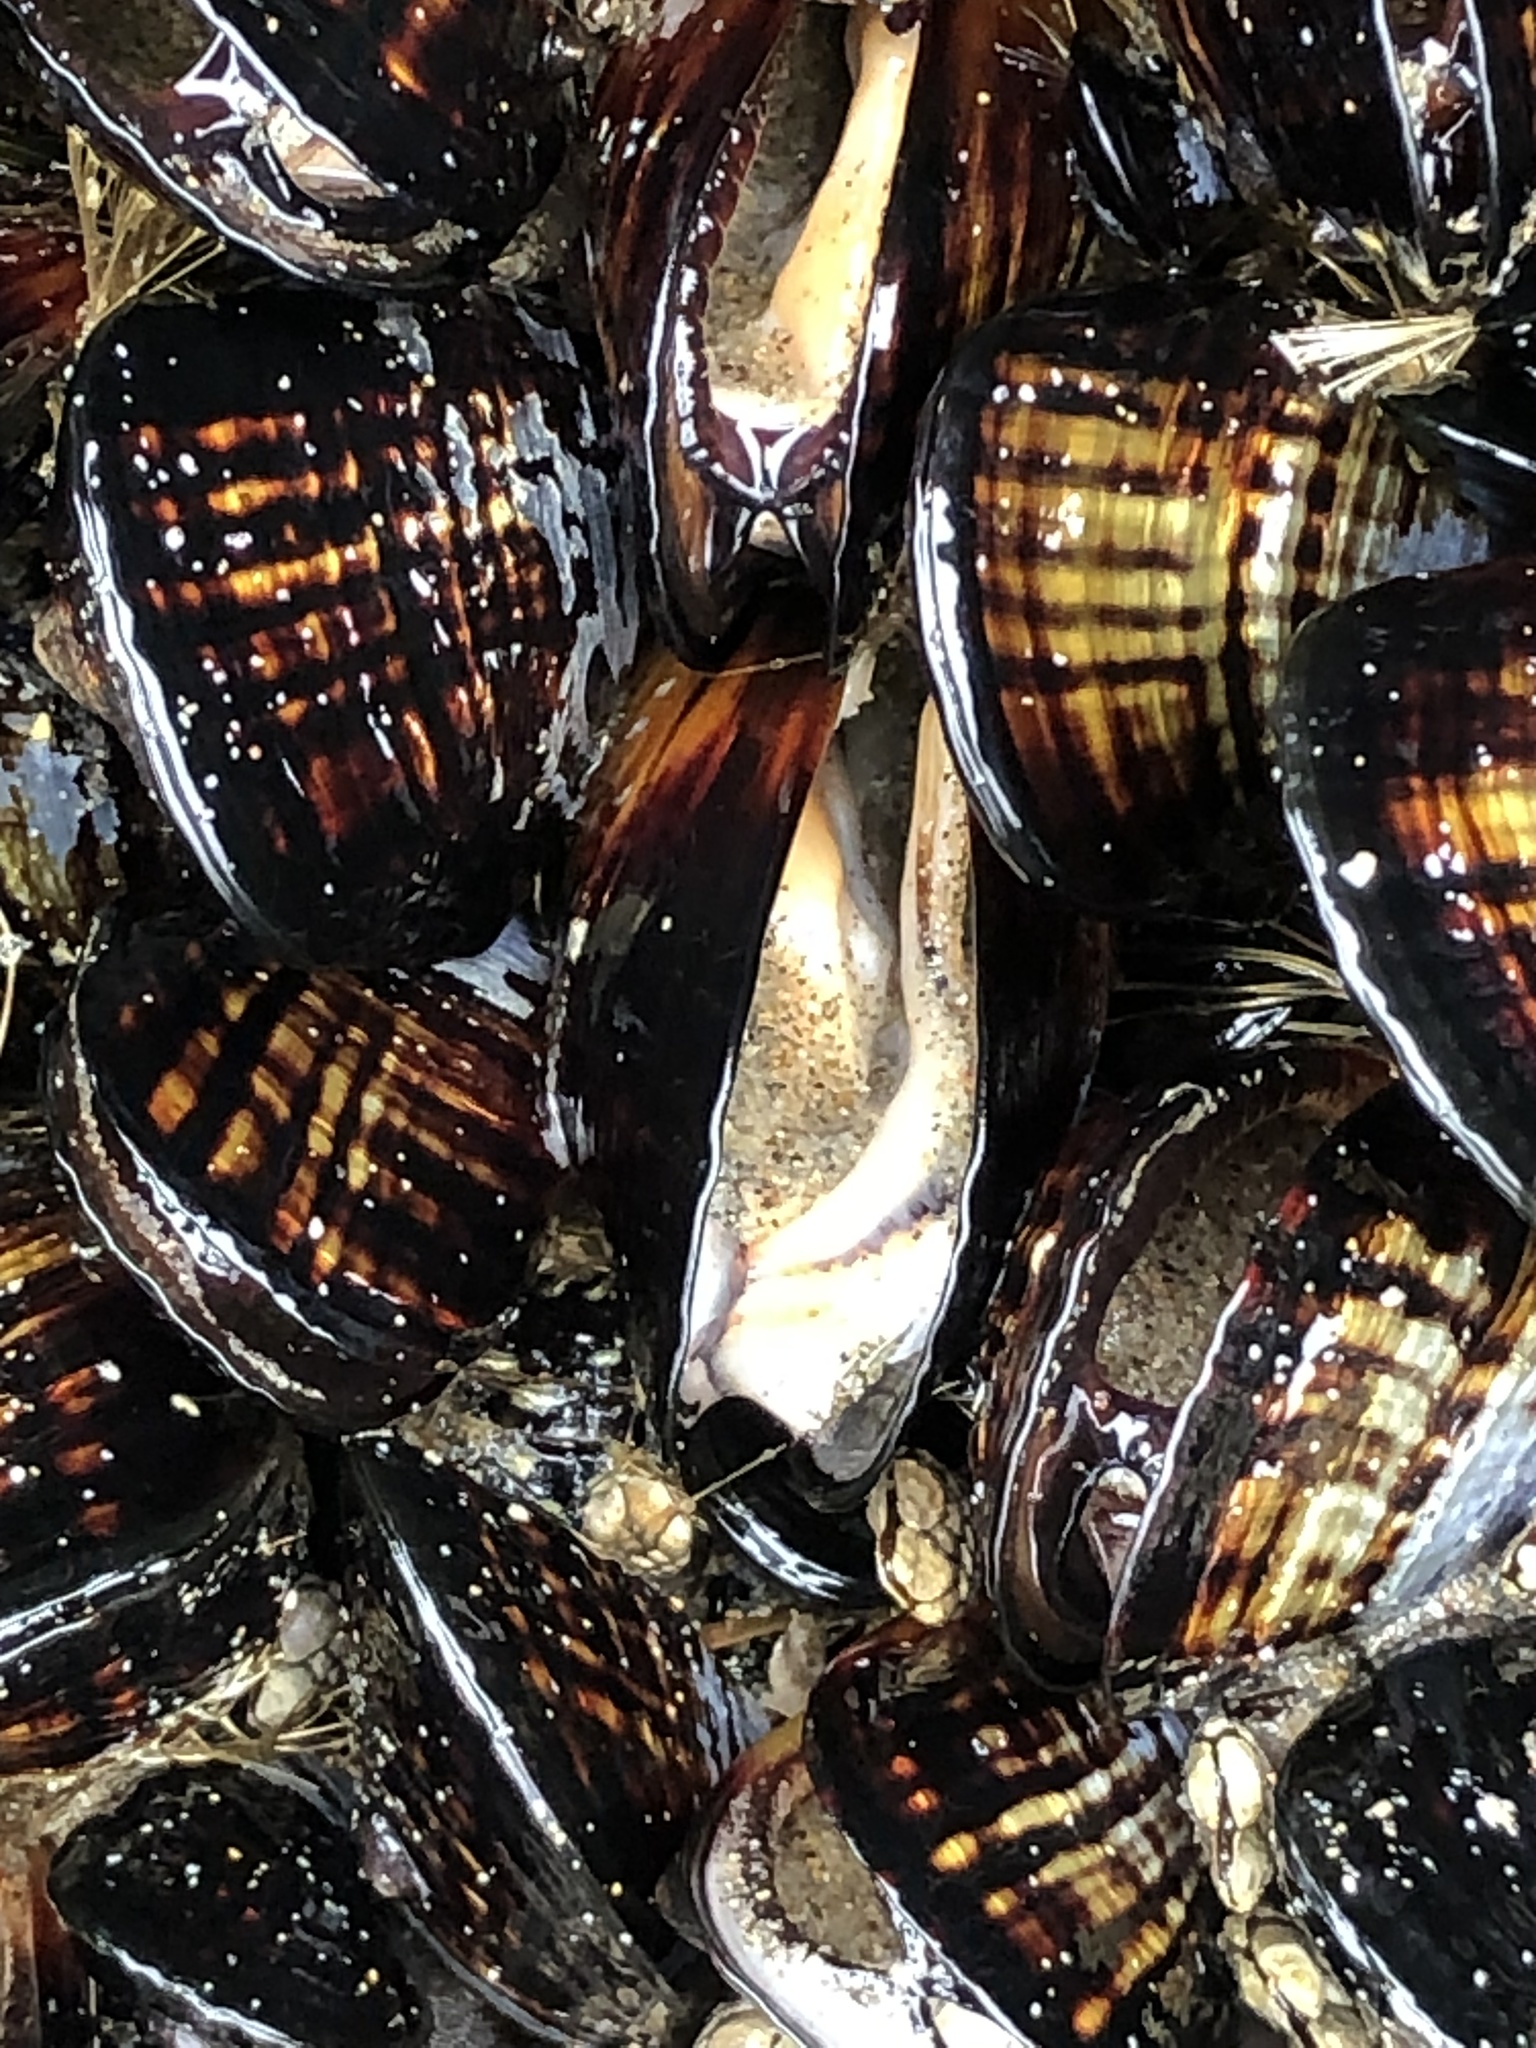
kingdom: Animalia
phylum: Mollusca
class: Bivalvia
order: Mytilida
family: Mytilidae
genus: Mytilus
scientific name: Mytilus californianus
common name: California mussel
